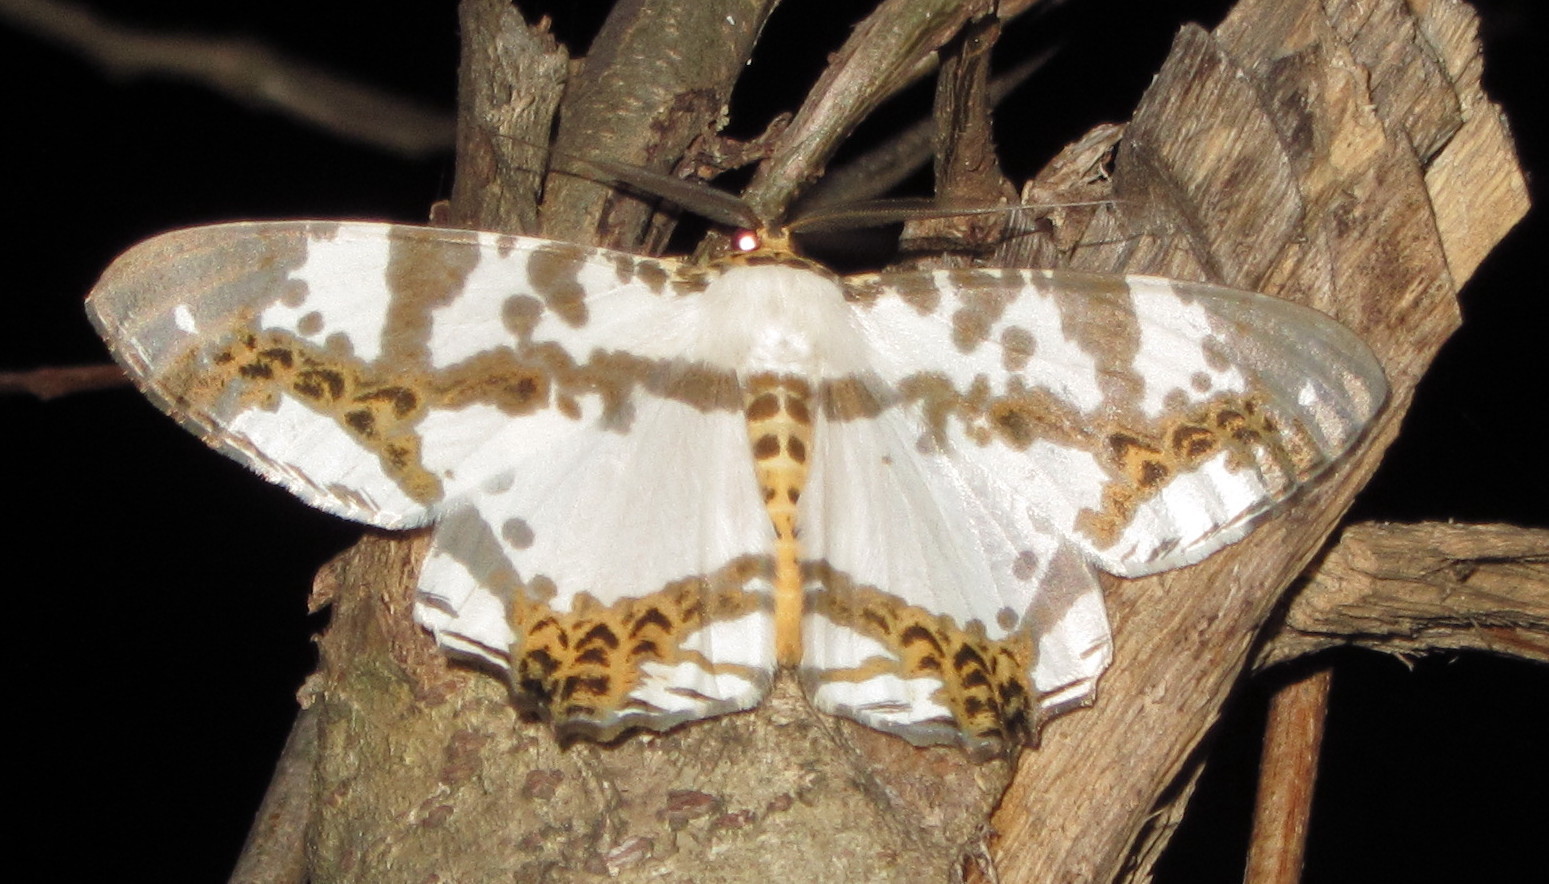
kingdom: Animalia
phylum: Arthropoda
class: Insecta
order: Lepidoptera
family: Geometridae
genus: Chorodna
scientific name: Chorodna moorei
